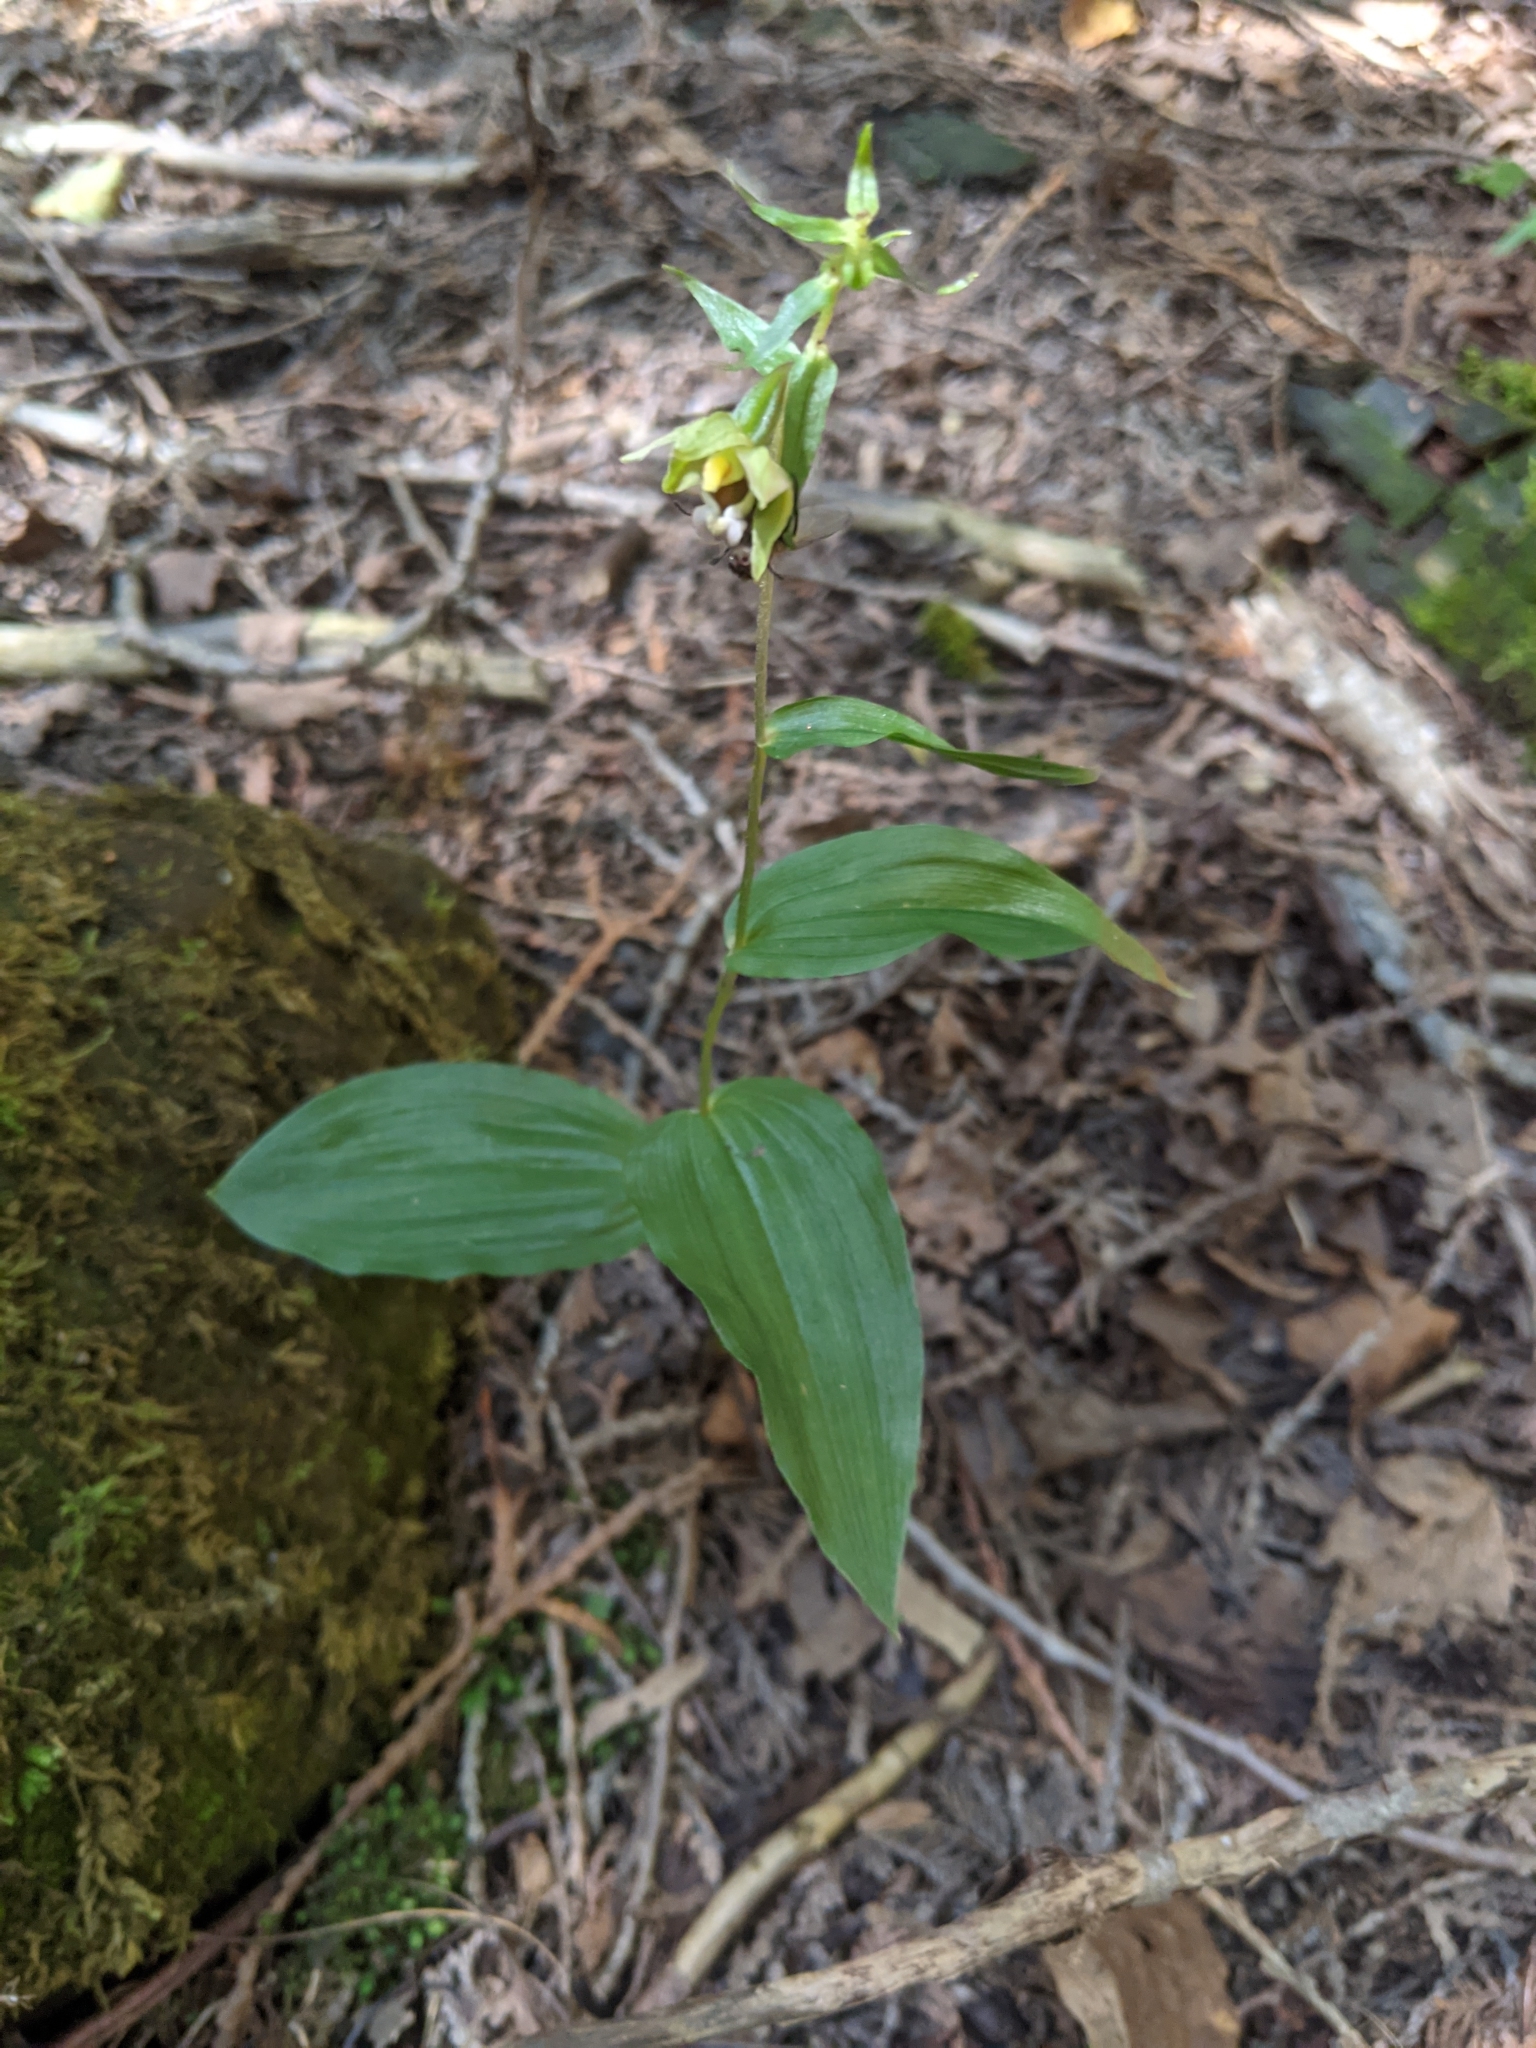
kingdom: Plantae
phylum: Tracheophyta
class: Liliopsida
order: Asparagales
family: Orchidaceae
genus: Epipactis
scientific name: Epipactis helleborine
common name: Broad-leaved helleborine
